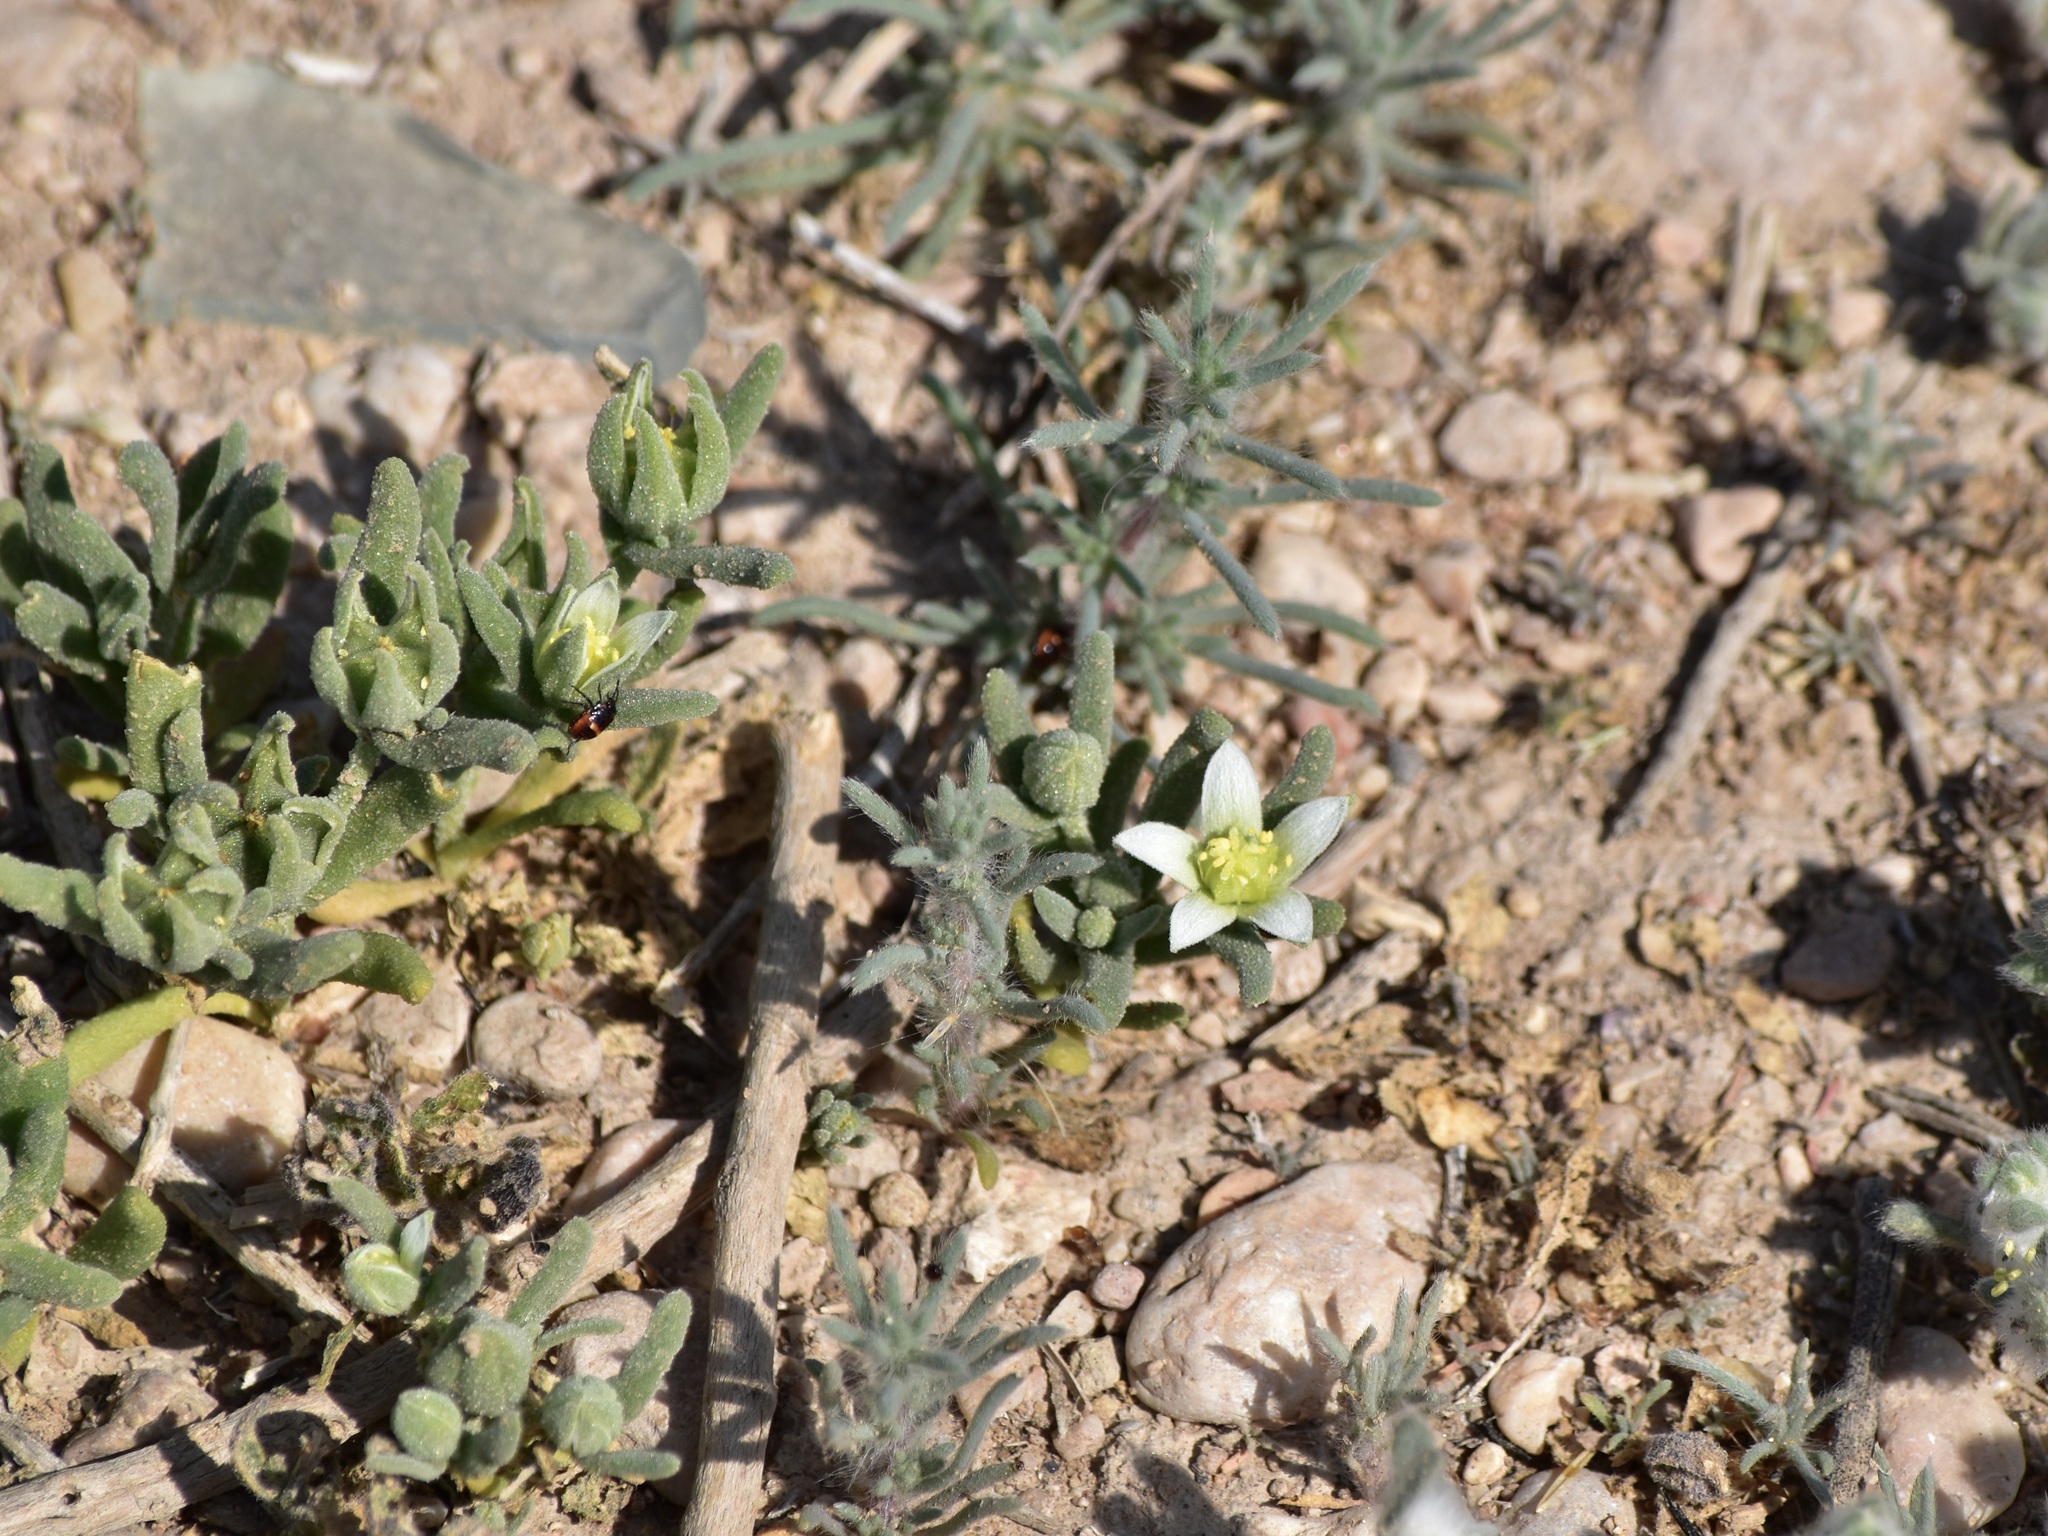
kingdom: Plantae
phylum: Tracheophyta
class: Magnoliopsida
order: Caryophyllales
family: Aizoaceae
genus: Aizoanthemopsis
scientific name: Aizoanthemopsis hispanica
